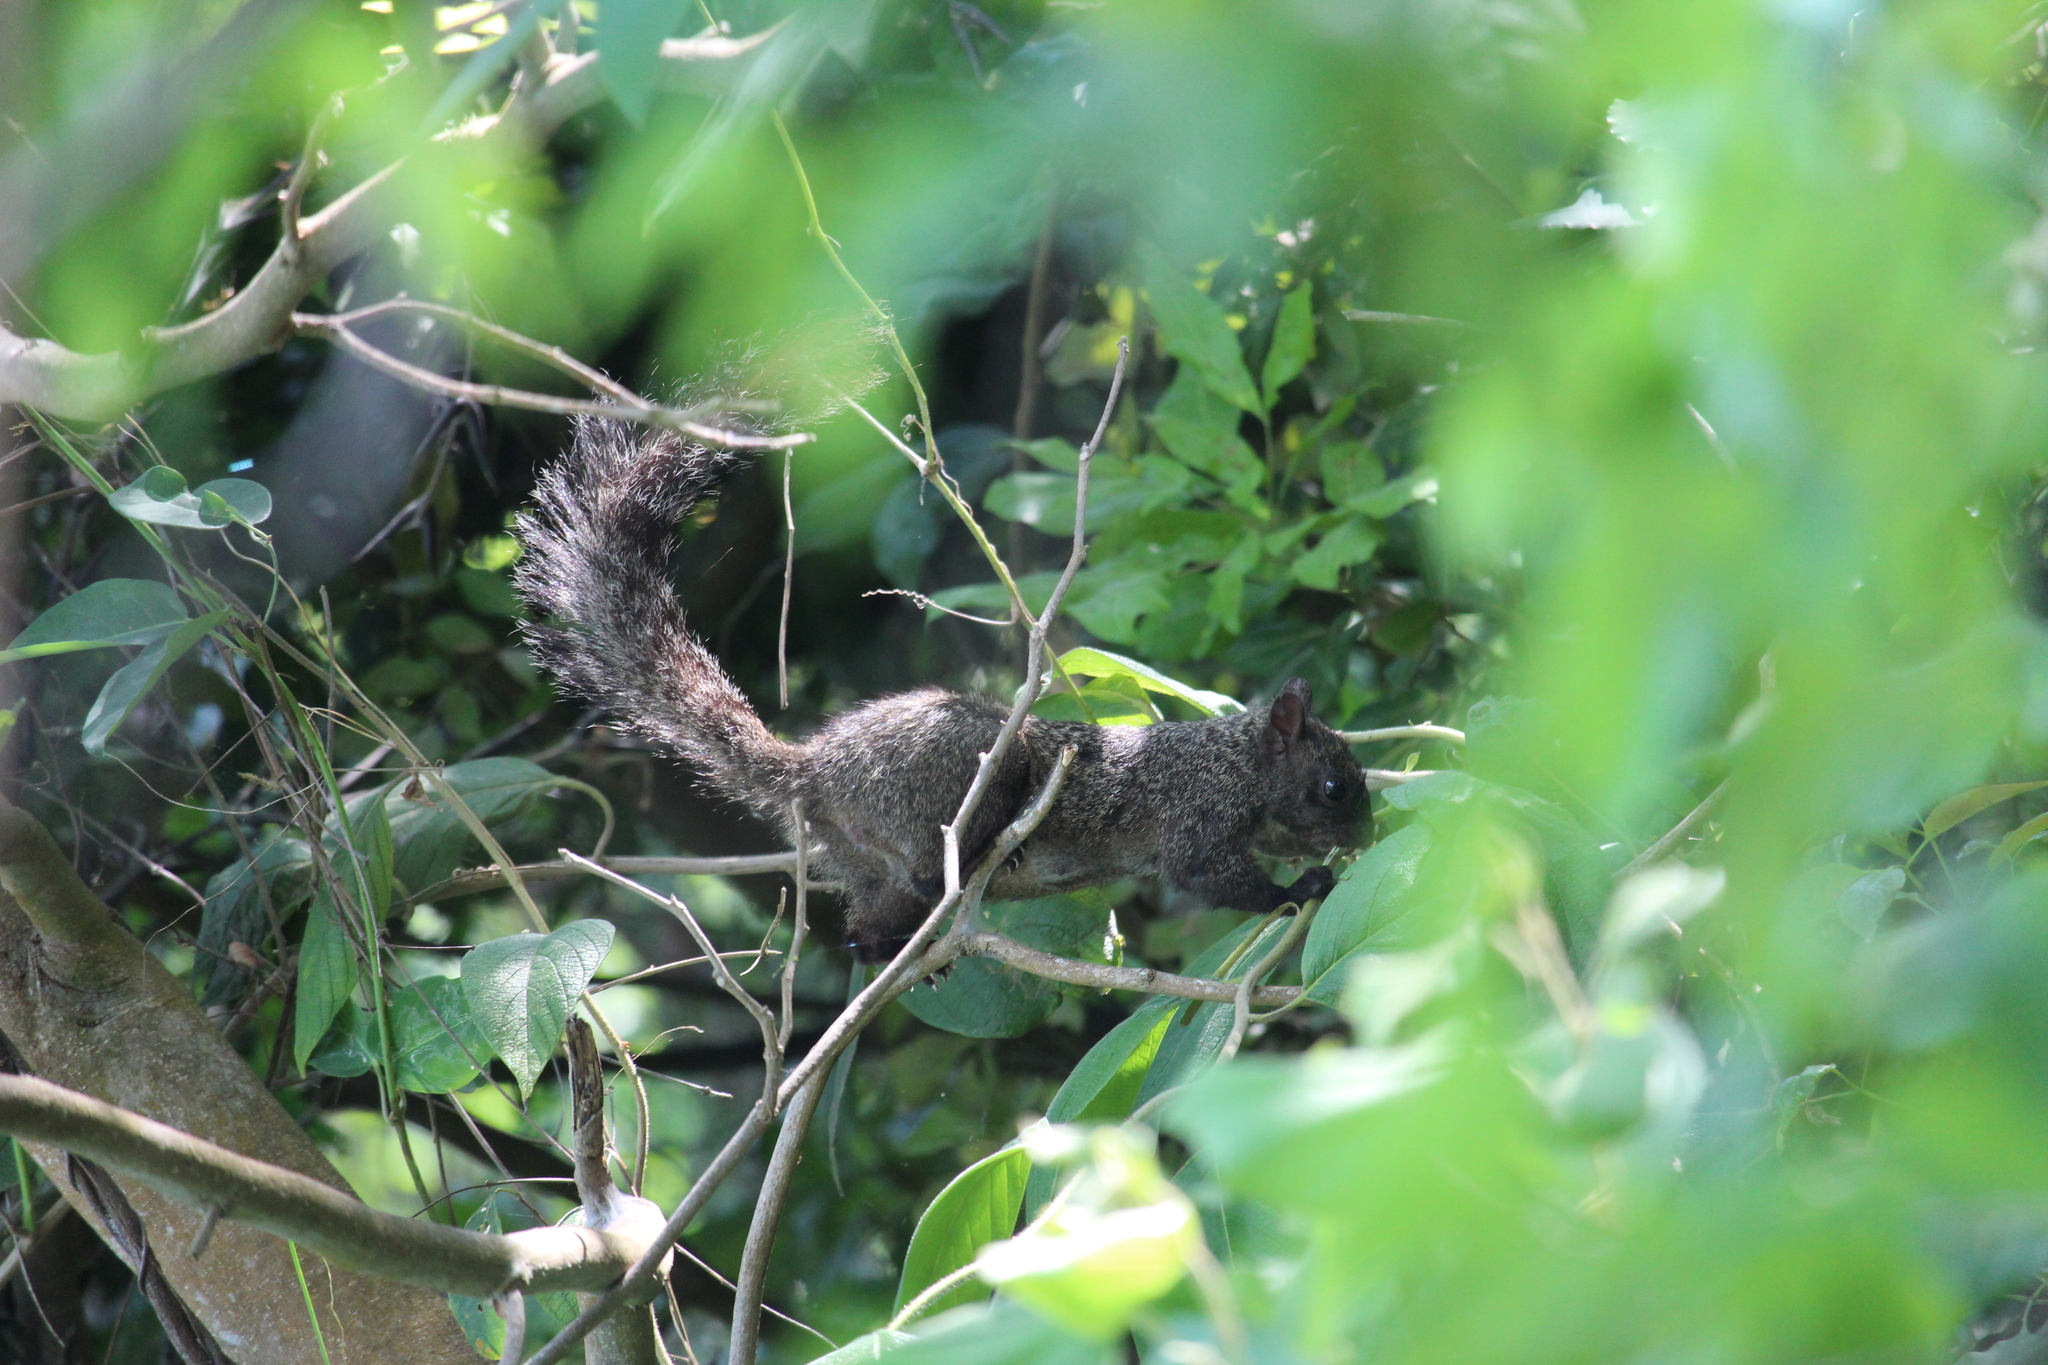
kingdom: Animalia
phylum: Chordata
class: Mammalia
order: Rodentia
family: Sciuridae
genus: Sciurus
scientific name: Sciurus yucatanensis
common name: Yucatan squirrel
